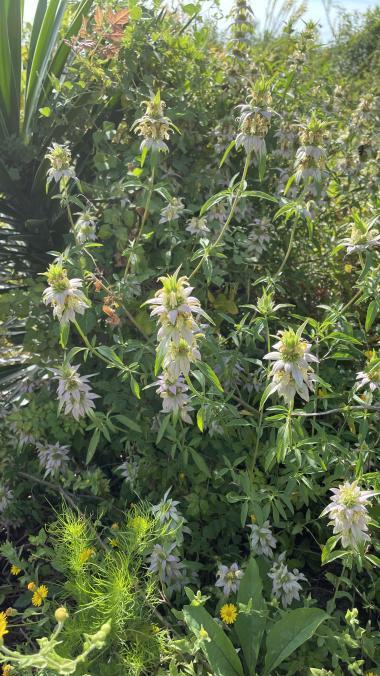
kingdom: Plantae
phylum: Tracheophyta
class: Magnoliopsida
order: Lamiales
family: Lamiaceae
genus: Monarda
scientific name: Monarda punctata
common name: Dotted monarda
